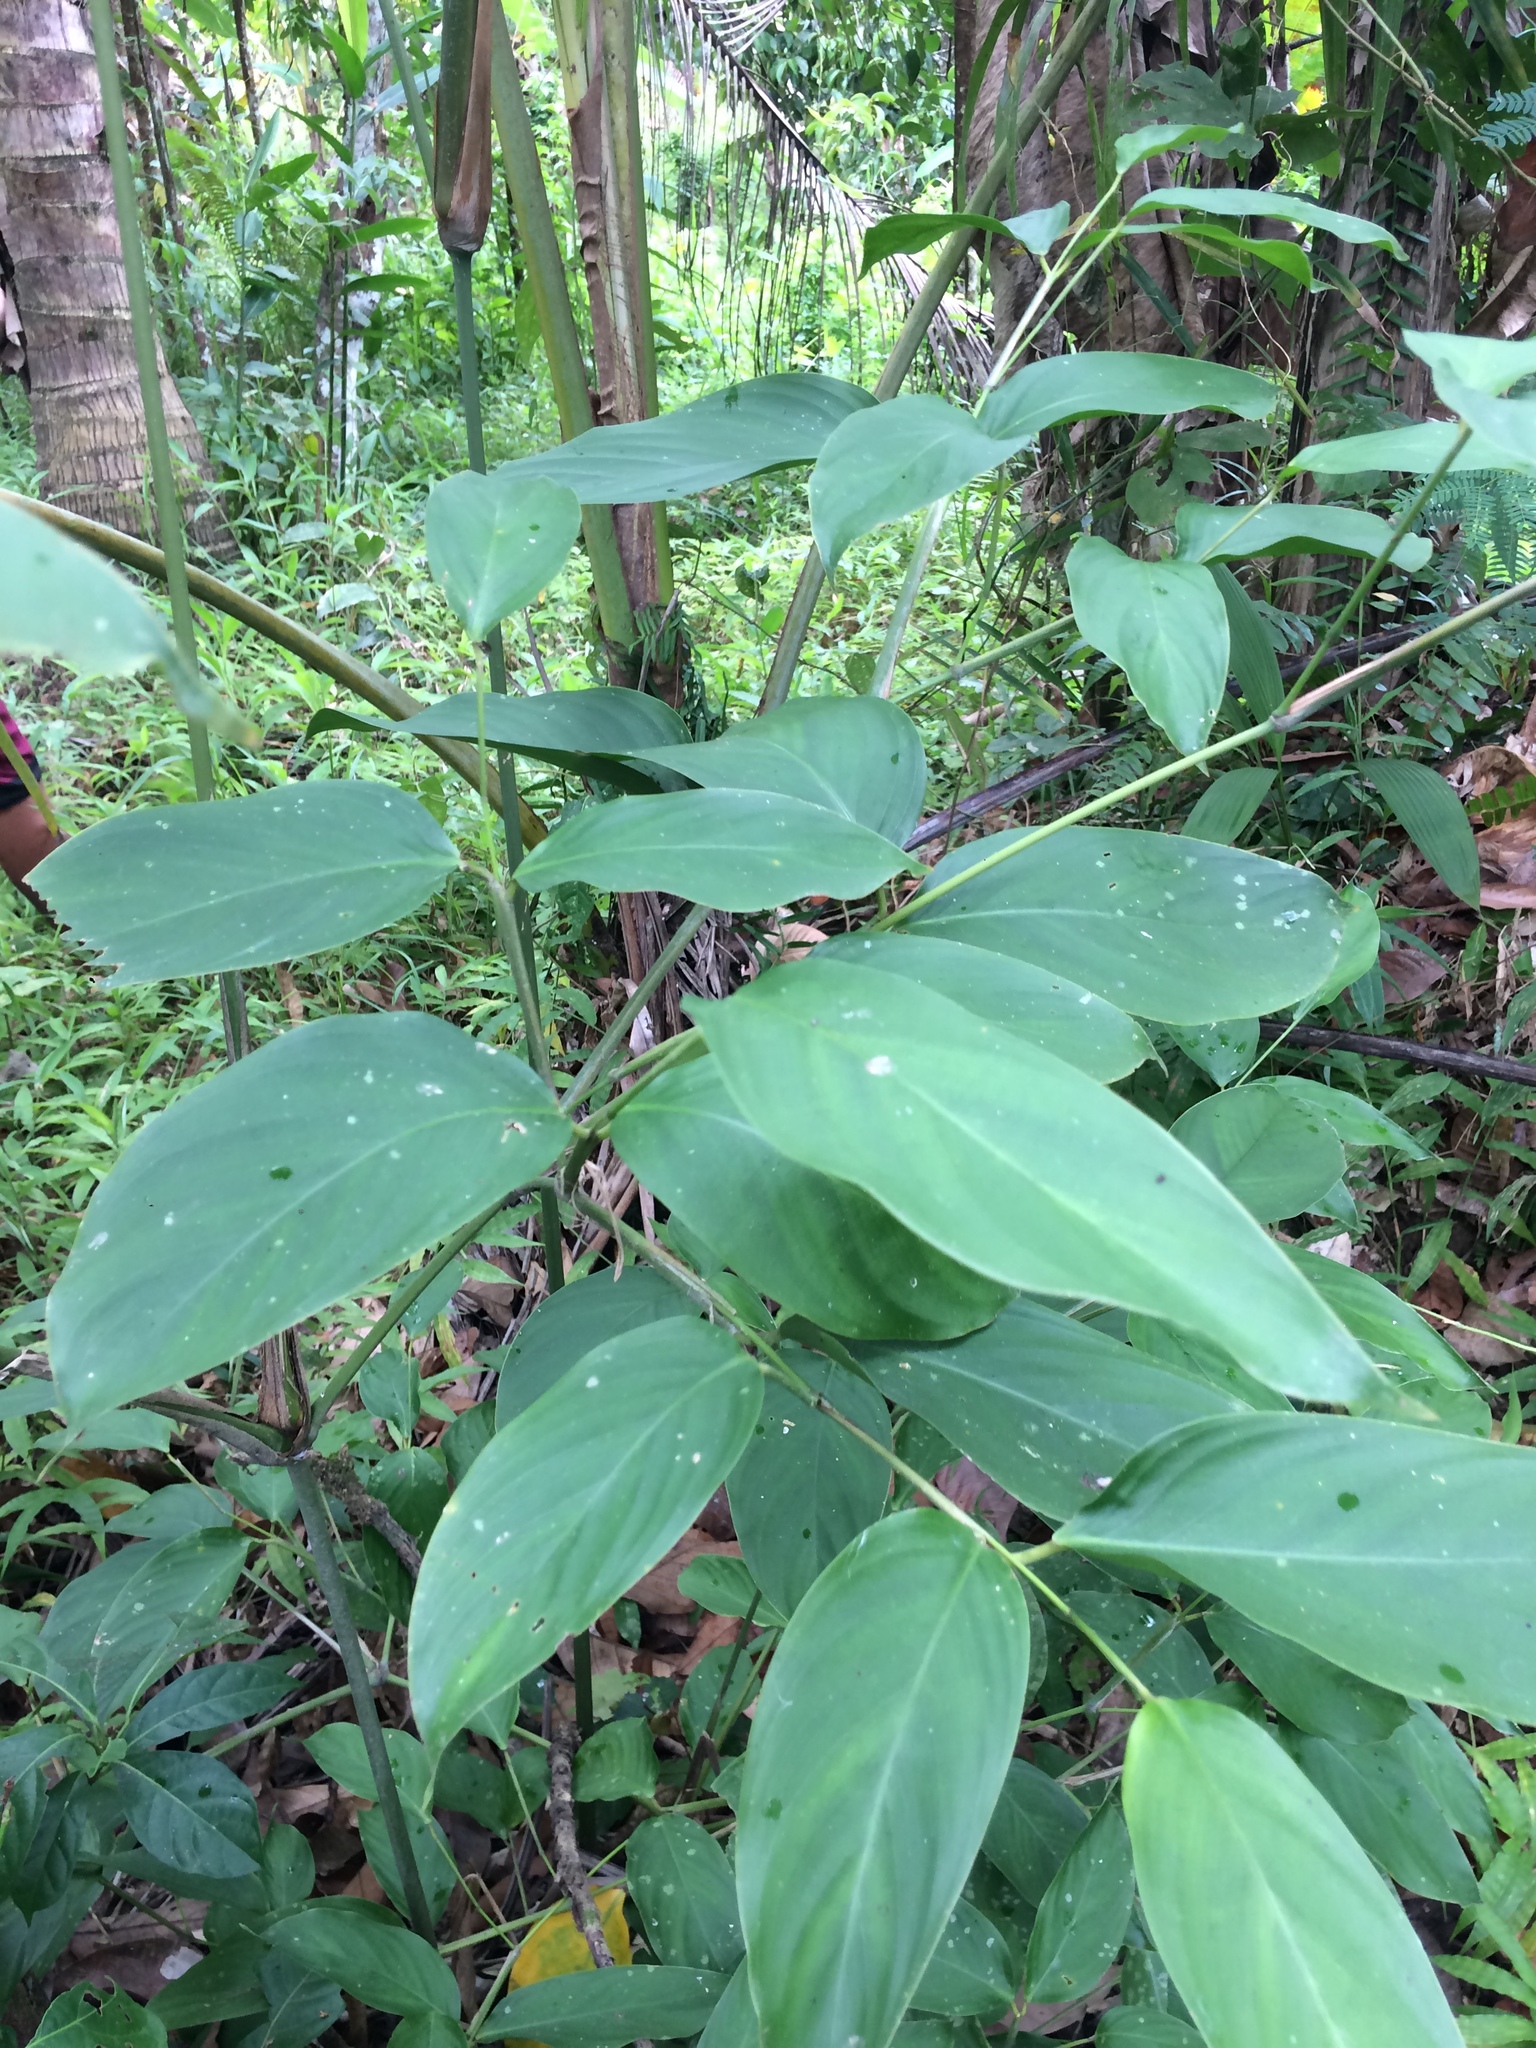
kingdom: Plantae
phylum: Tracheophyta
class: Liliopsida
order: Zingiberales
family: Marantaceae
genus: Donax
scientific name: Donax canniformis
